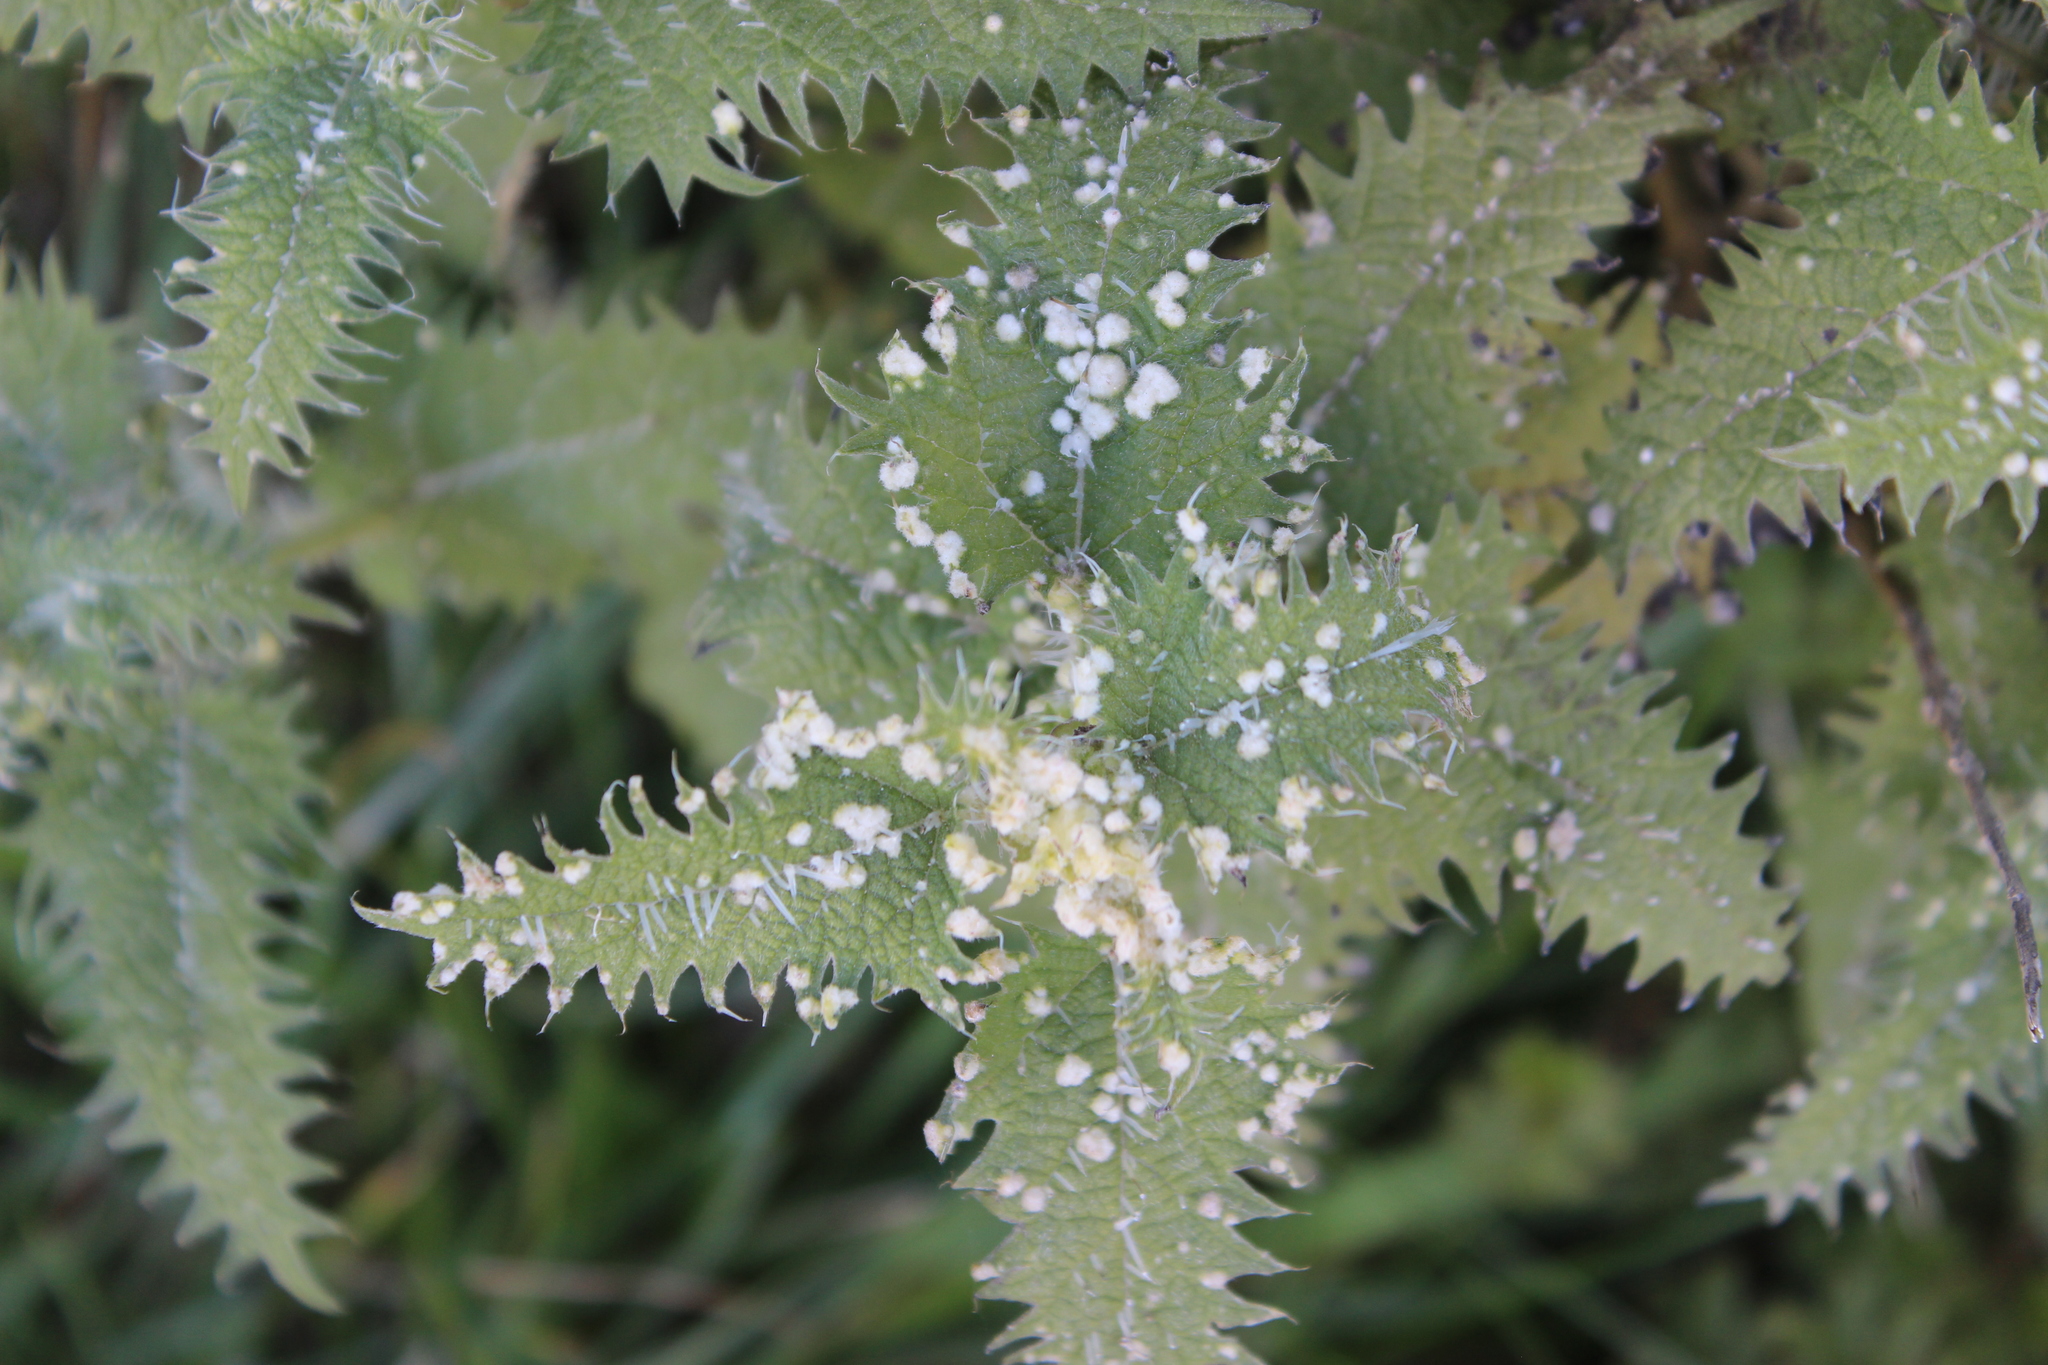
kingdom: Plantae
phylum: Tracheophyta
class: Magnoliopsida
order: Rosales
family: Urticaceae
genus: Urtica
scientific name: Urtica ferox
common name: Tree nettle
